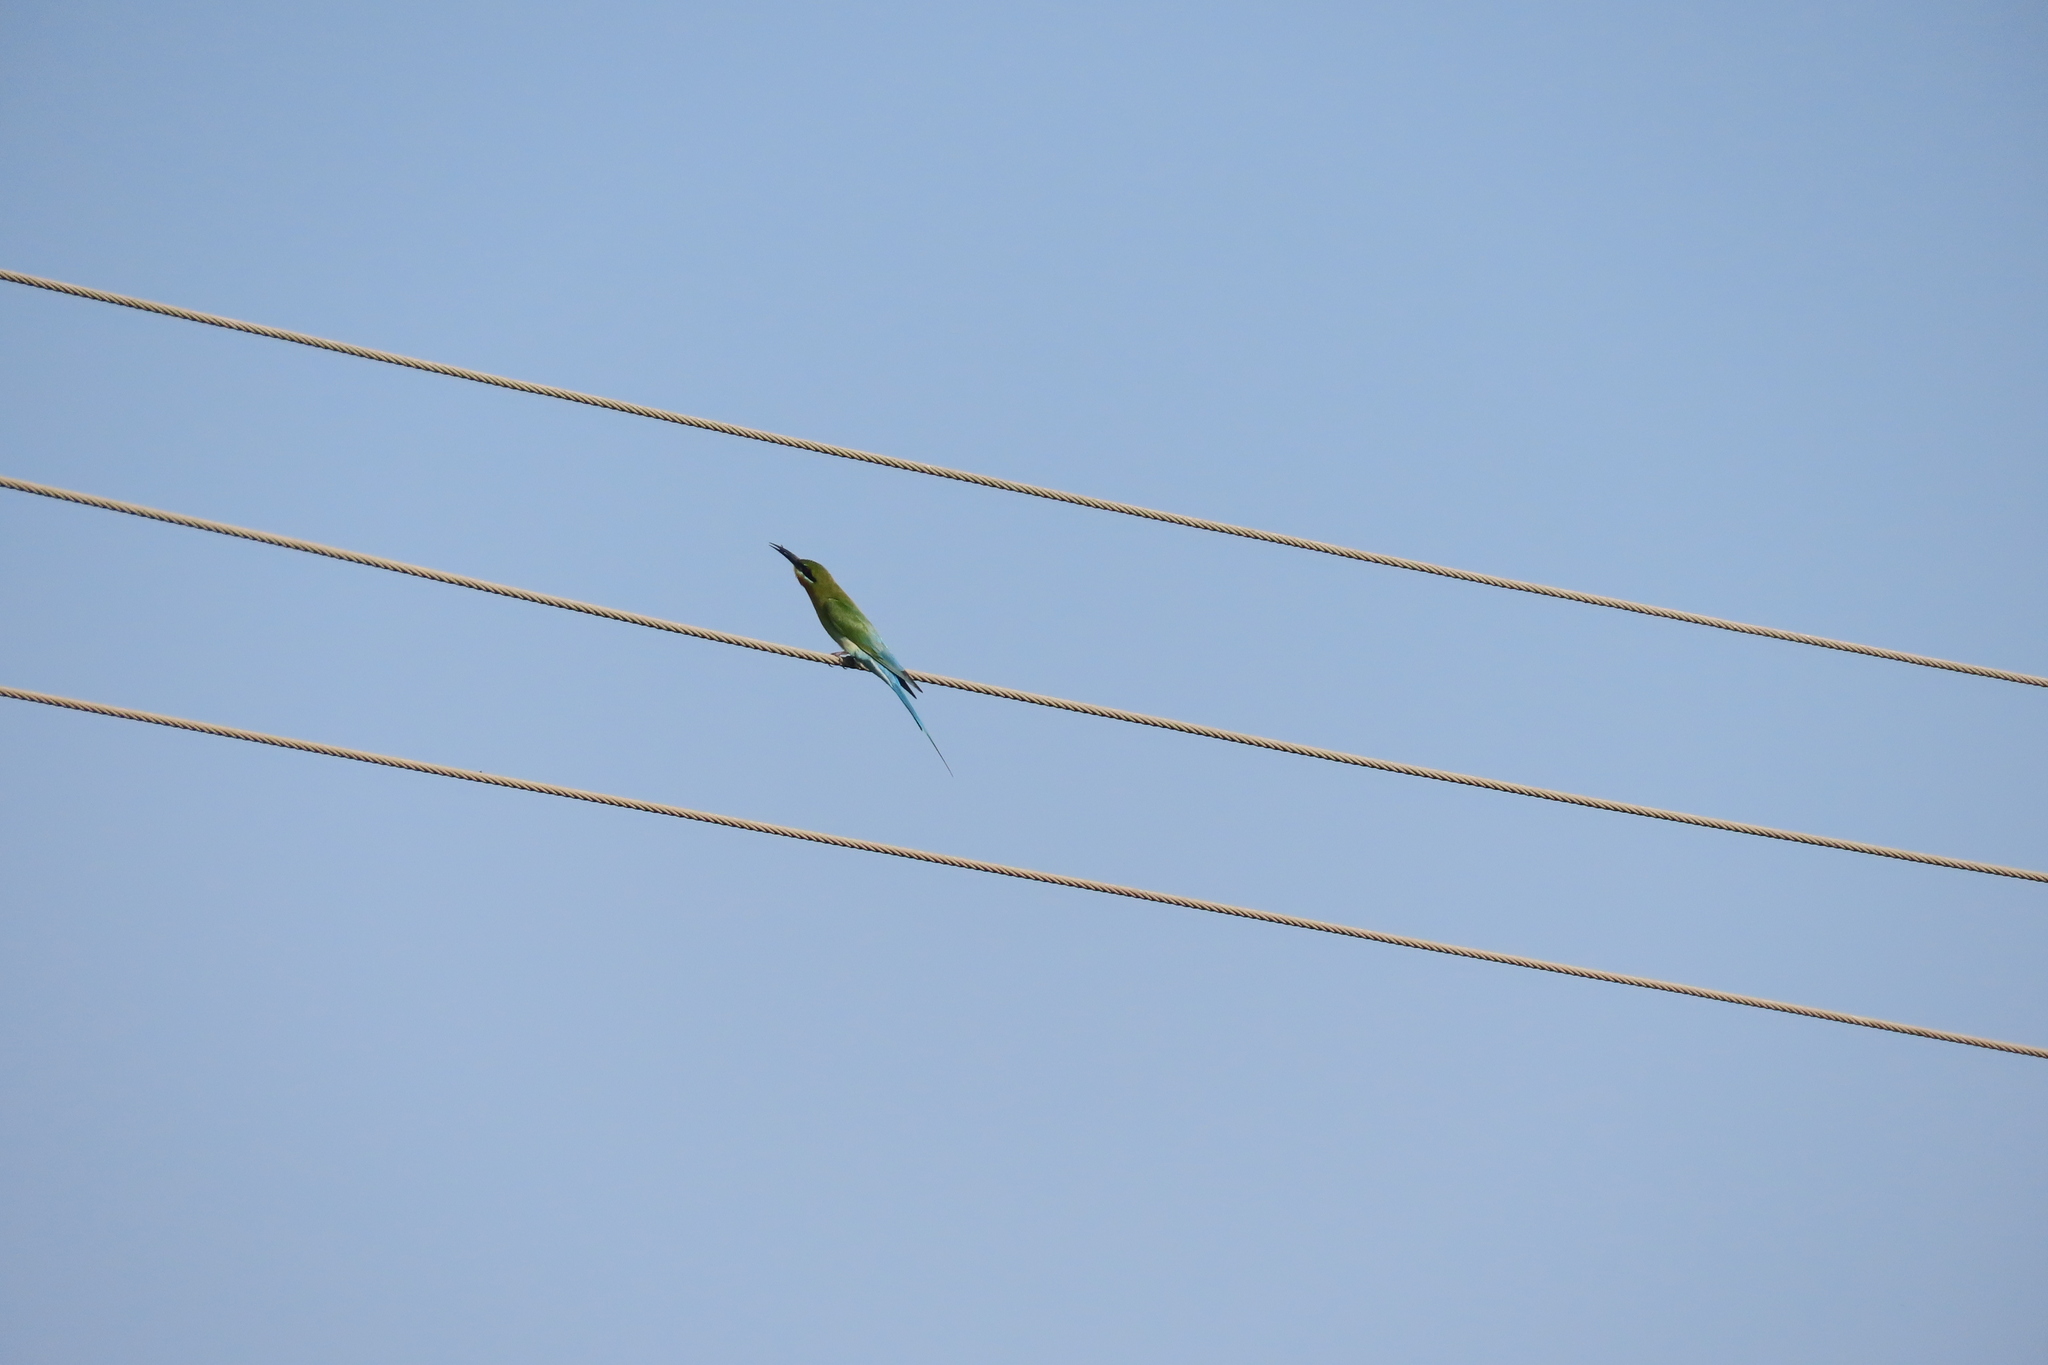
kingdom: Animalia
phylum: Chordata
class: Aves
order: Coraciiformes
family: Meropidae
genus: Merops
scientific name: Merops philippinus
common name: Blue-tailed bee-eater
